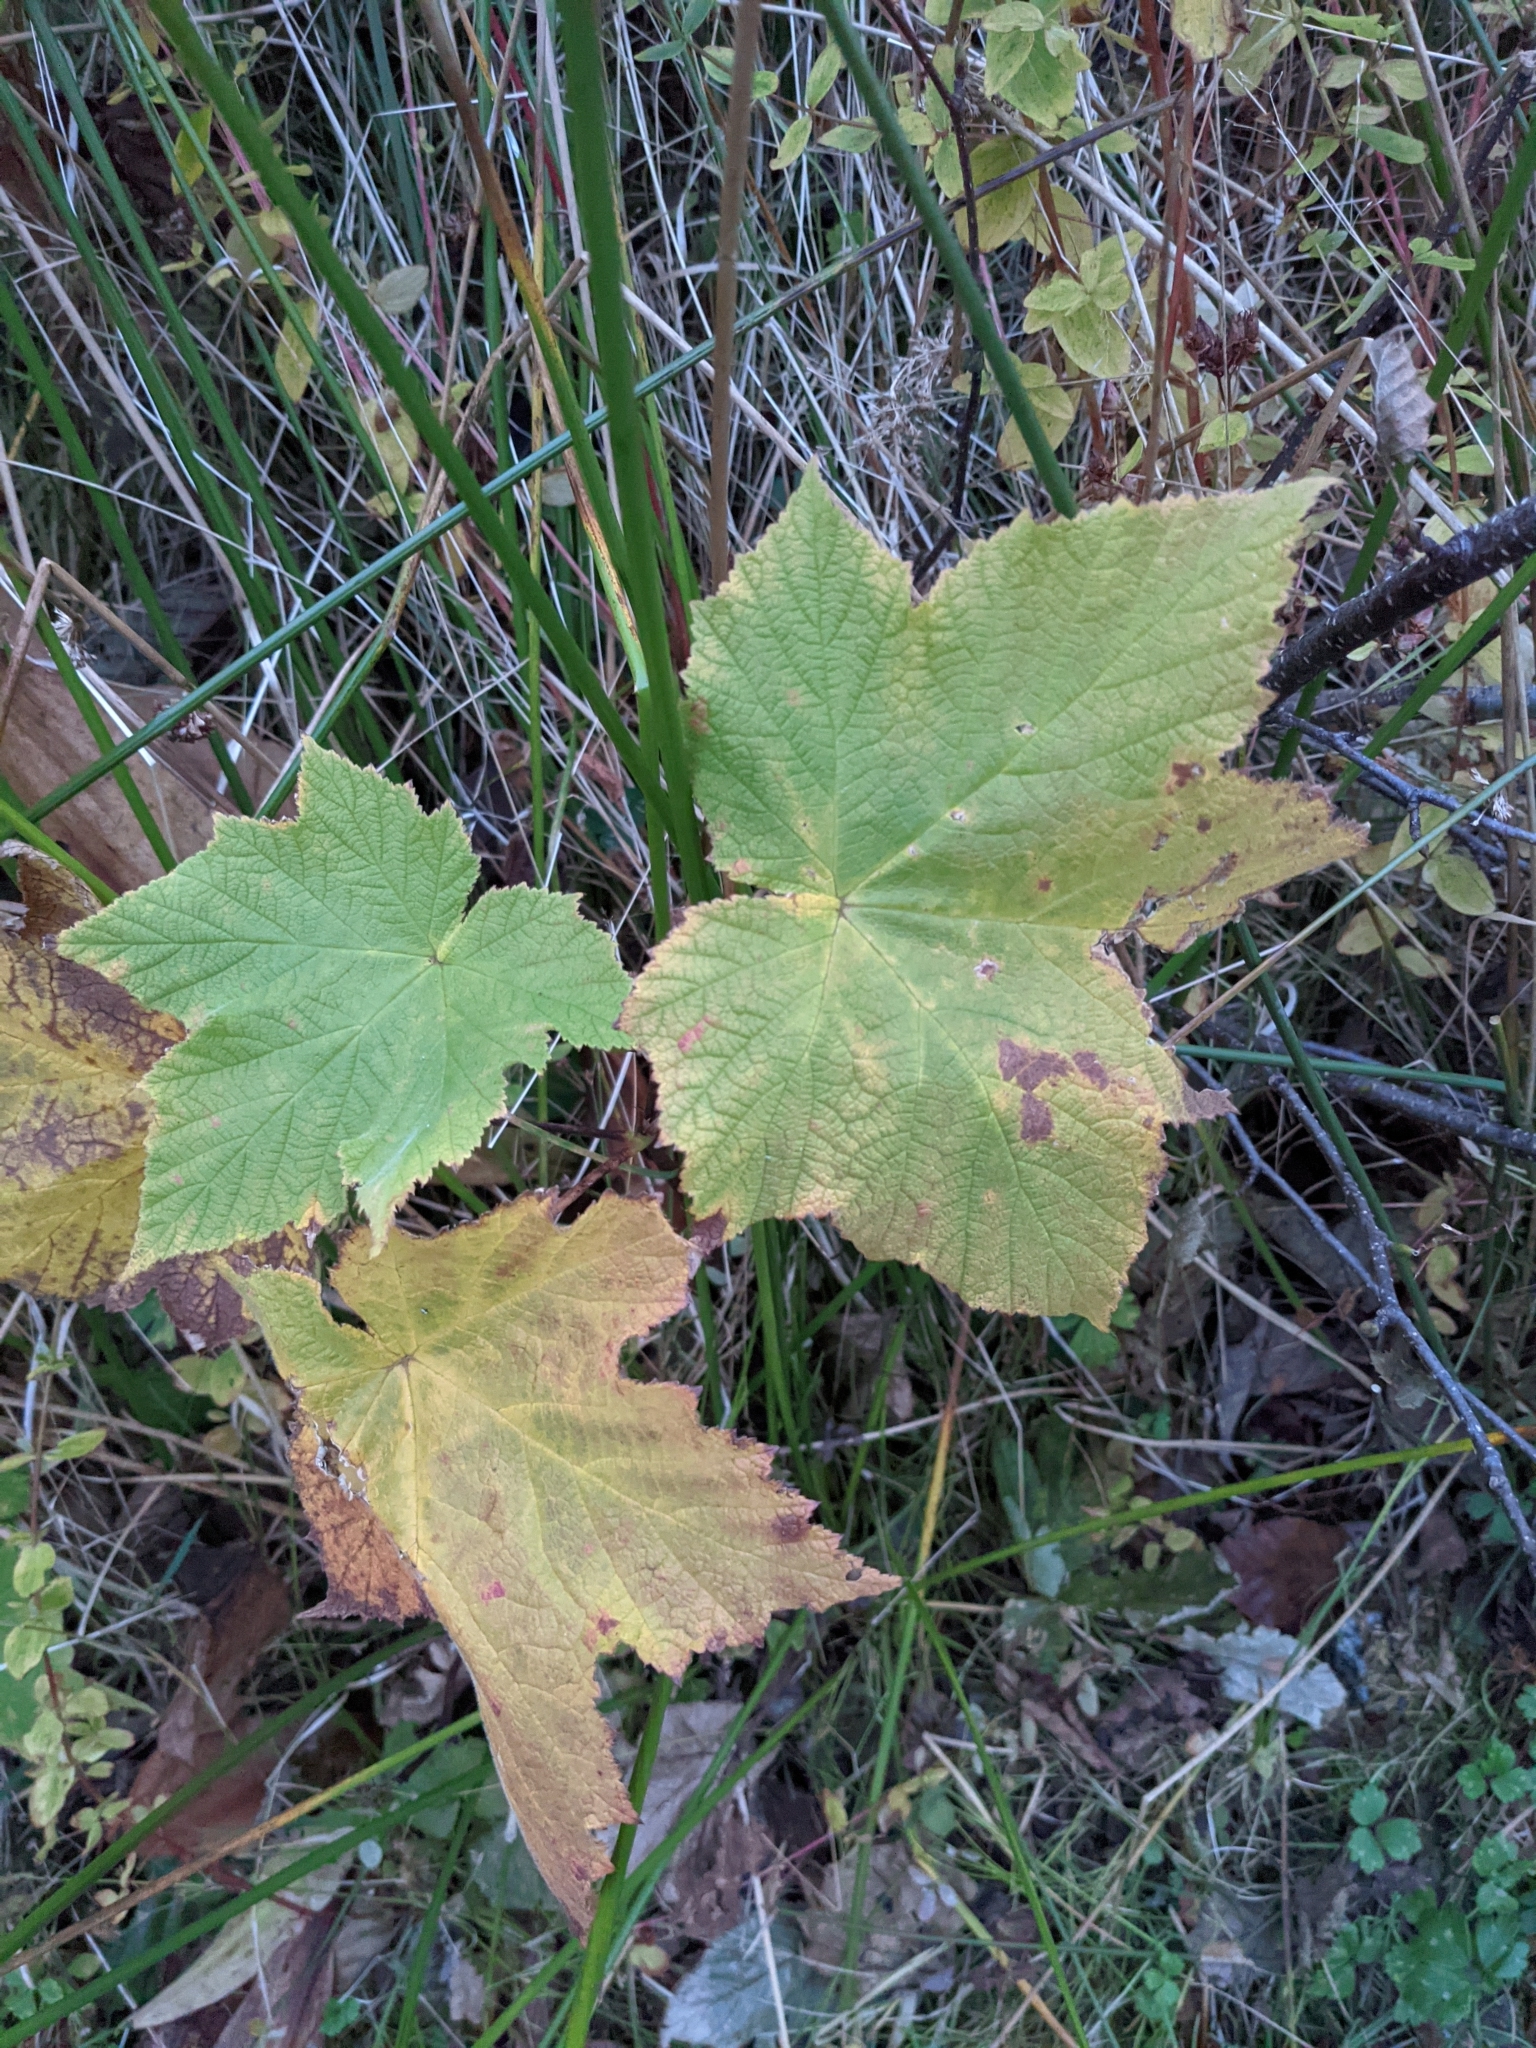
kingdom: Plantae
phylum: Tracheophyta
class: Magnoliopsida
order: Rosales
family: Rosaceae
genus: Rubus
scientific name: Rubus parviflorus
